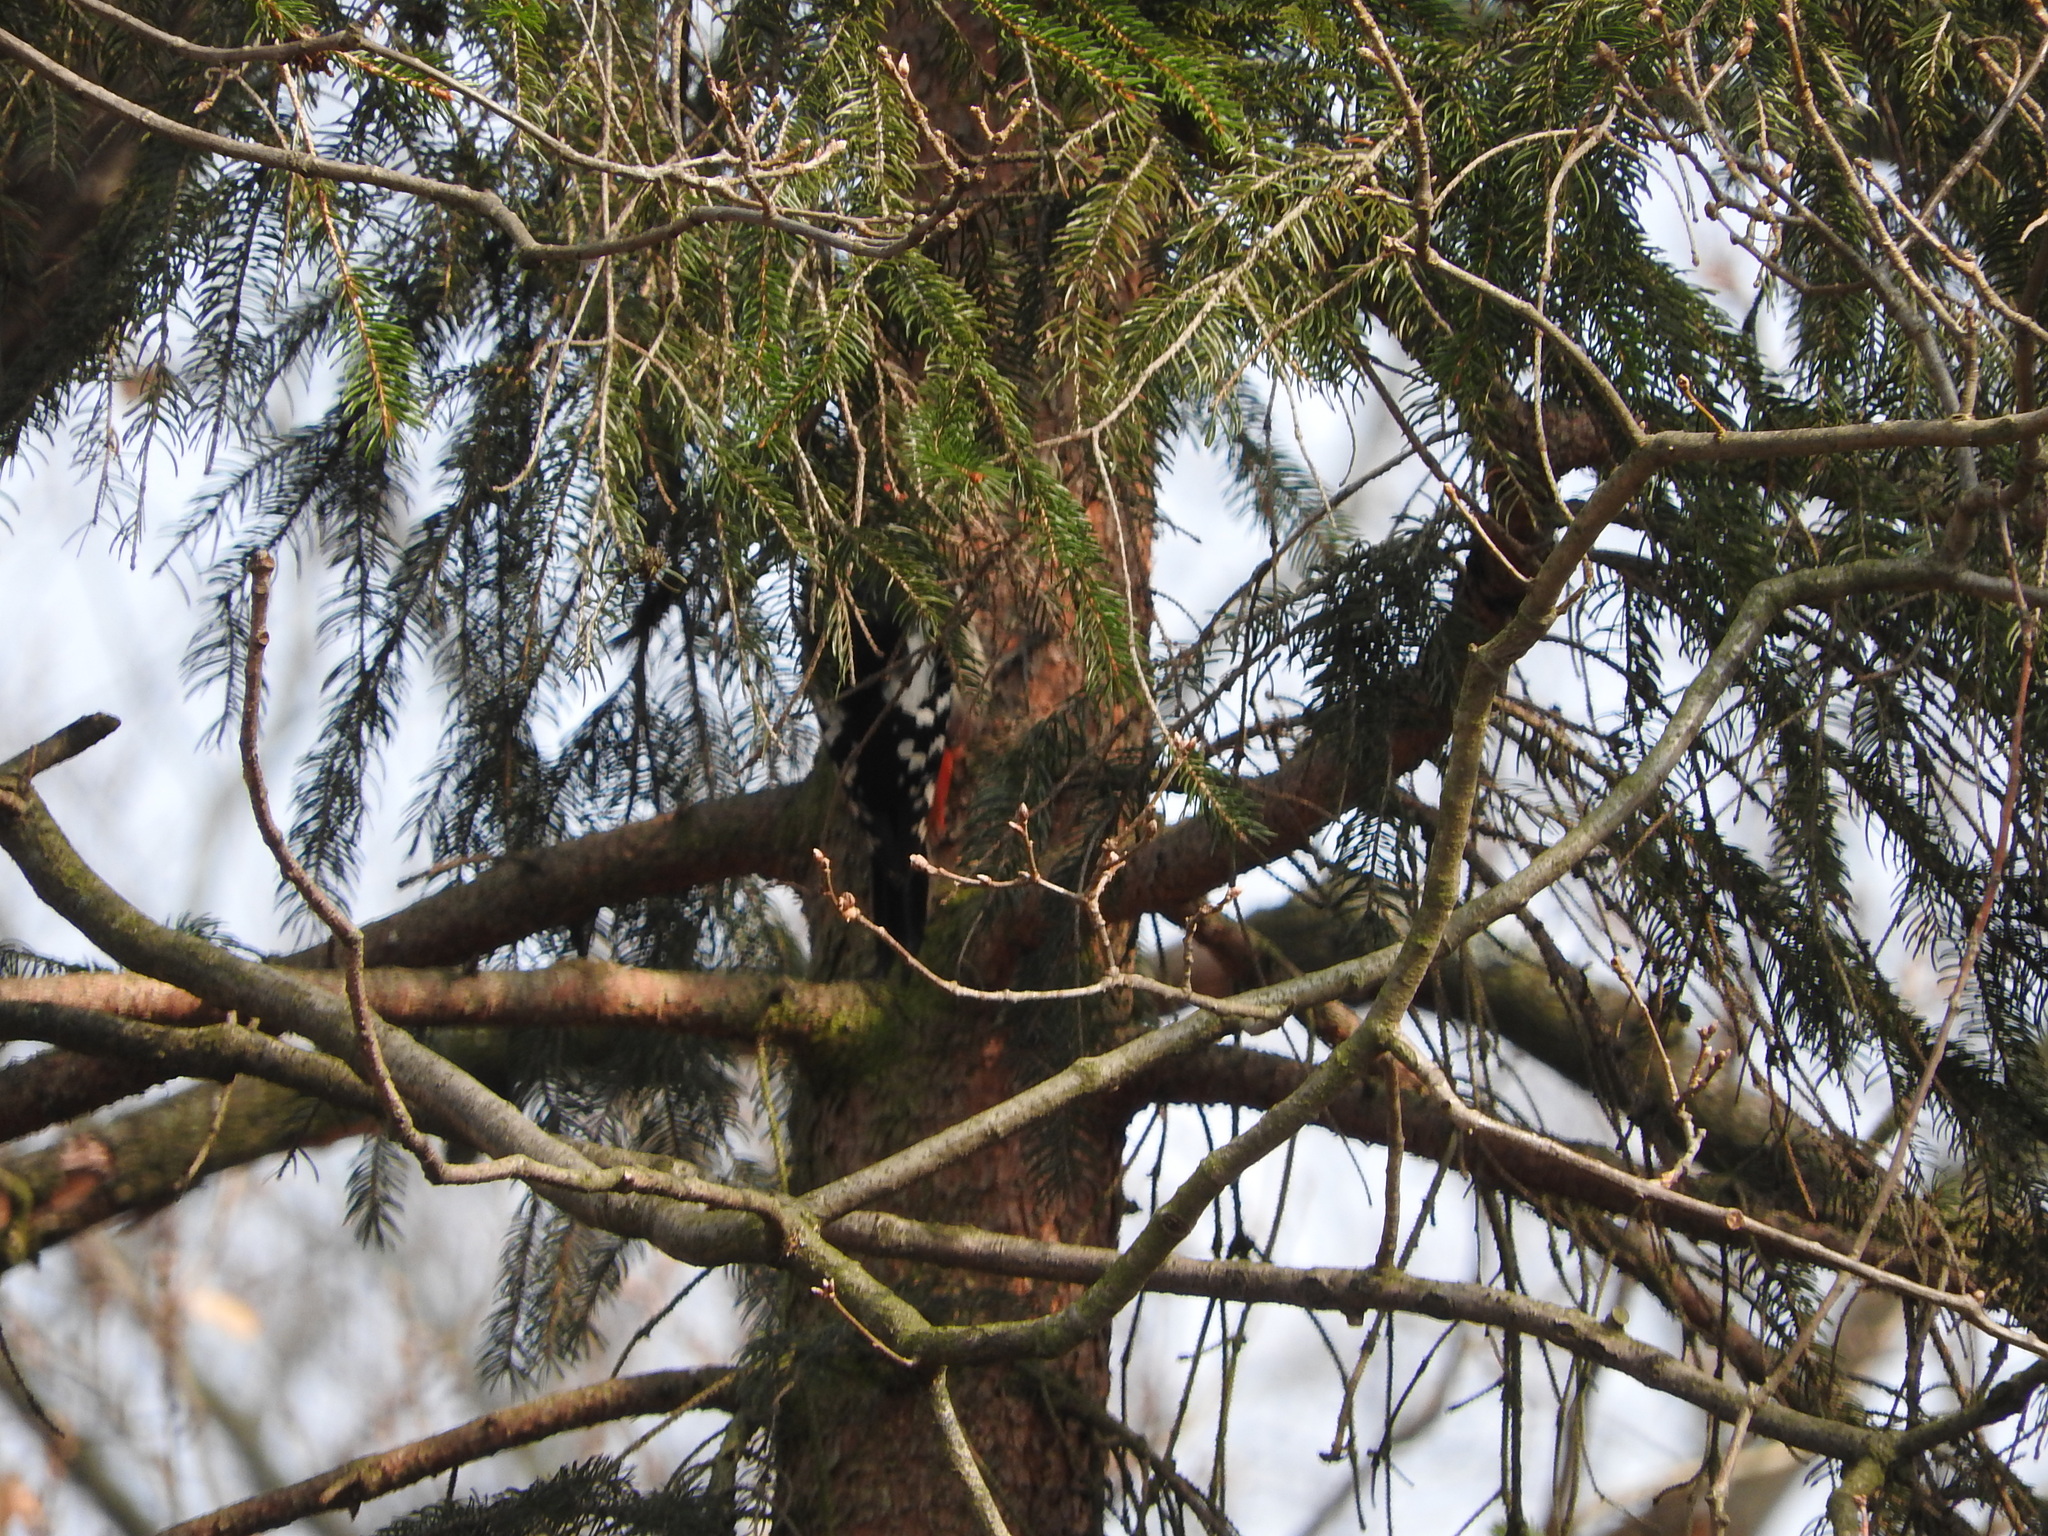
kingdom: Animalia
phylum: Chordata
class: Aves
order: Piciformes
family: Picidae
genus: Dendrocopos
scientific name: Dendrocopos major
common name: Great spotted woodpecker
